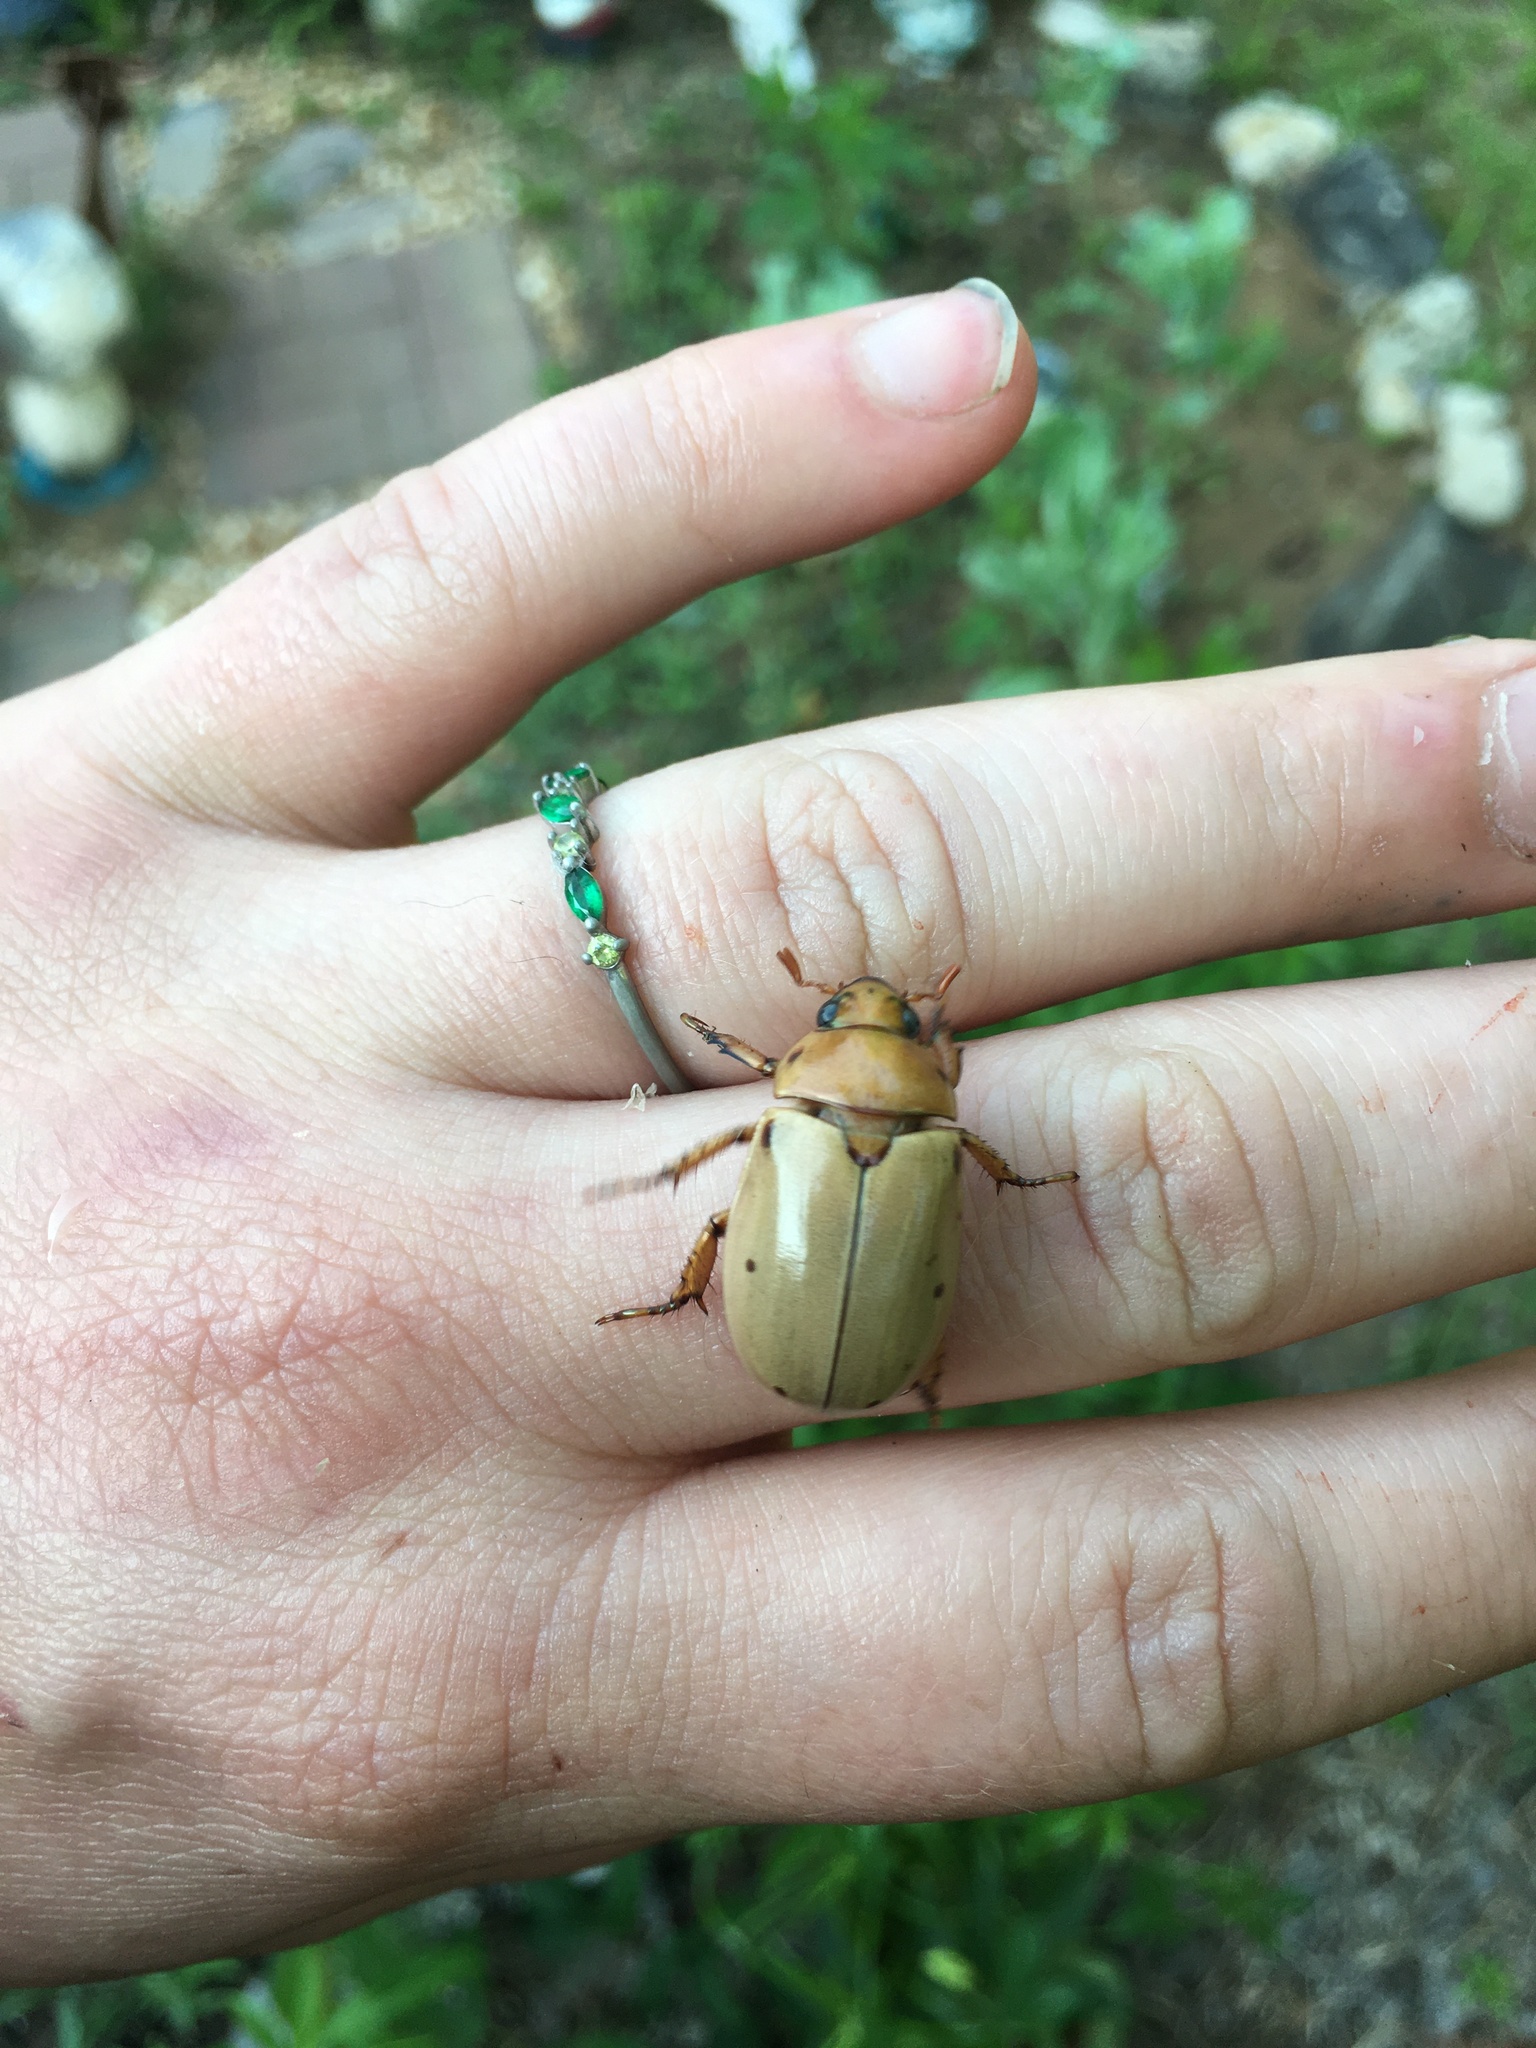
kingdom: Animalia
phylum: Arthropoda
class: Insecta
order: Coleoptera
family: Scarabaeidae
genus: Pelidnota
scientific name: Pelidnota punctata
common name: Grapevine beetle
